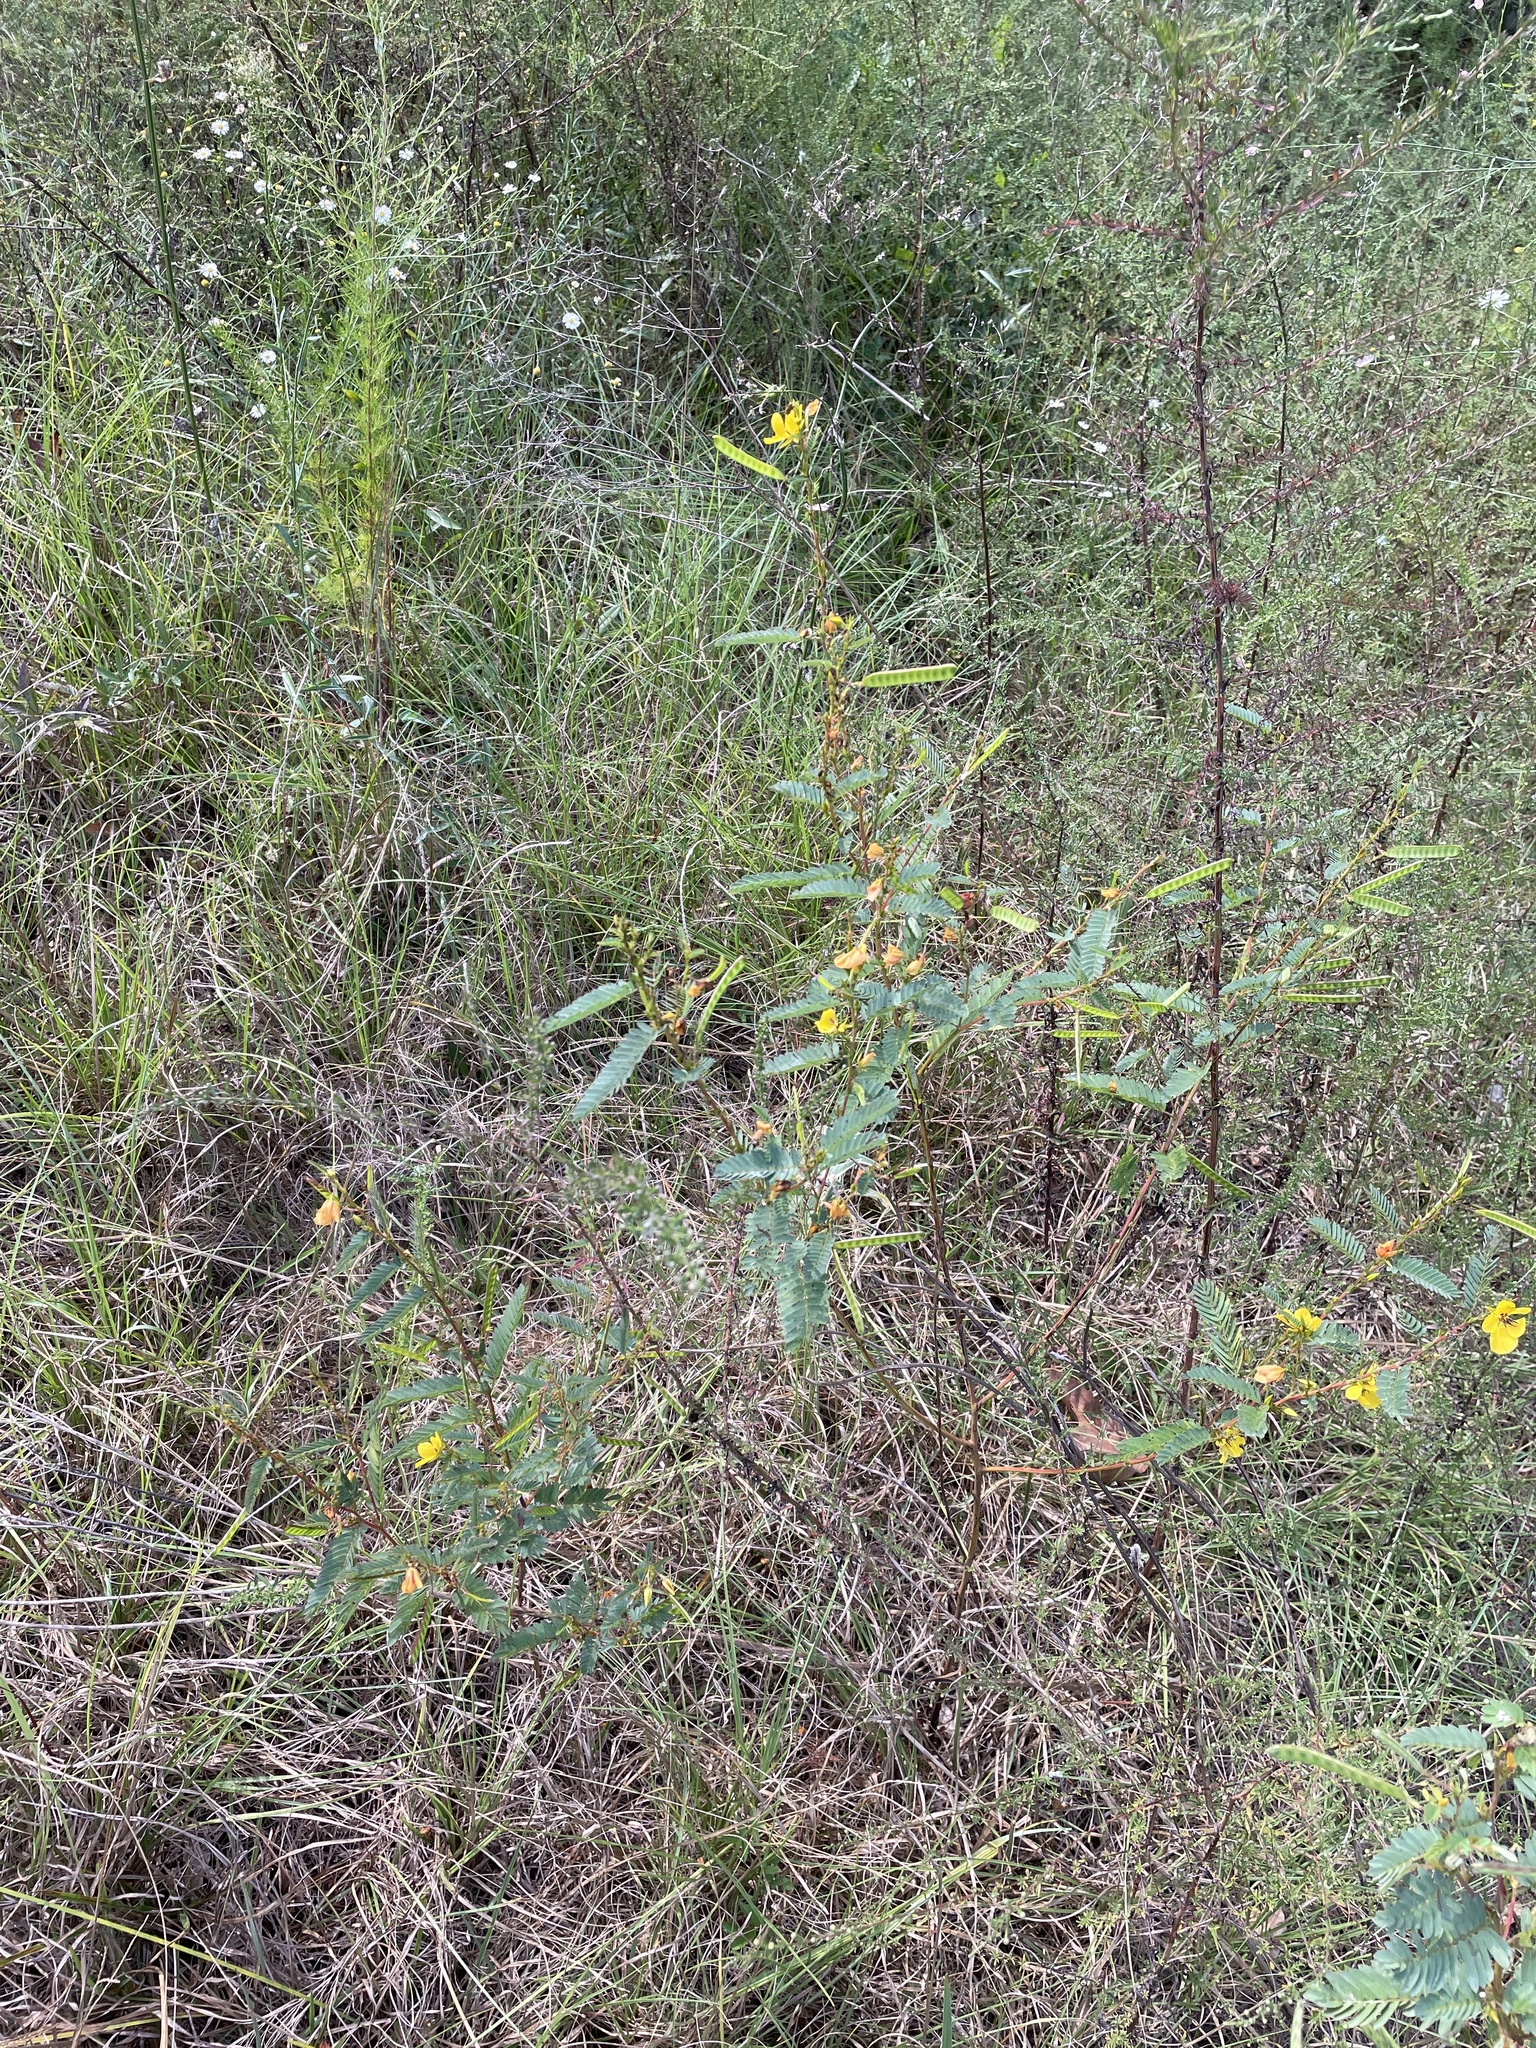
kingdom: Plantae
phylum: Tracheophyta
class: Magnoliopsida
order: Fabales
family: Fabaceae
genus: Chamaecrista
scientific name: Chamaecrista fasciculata
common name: Golden cassia
